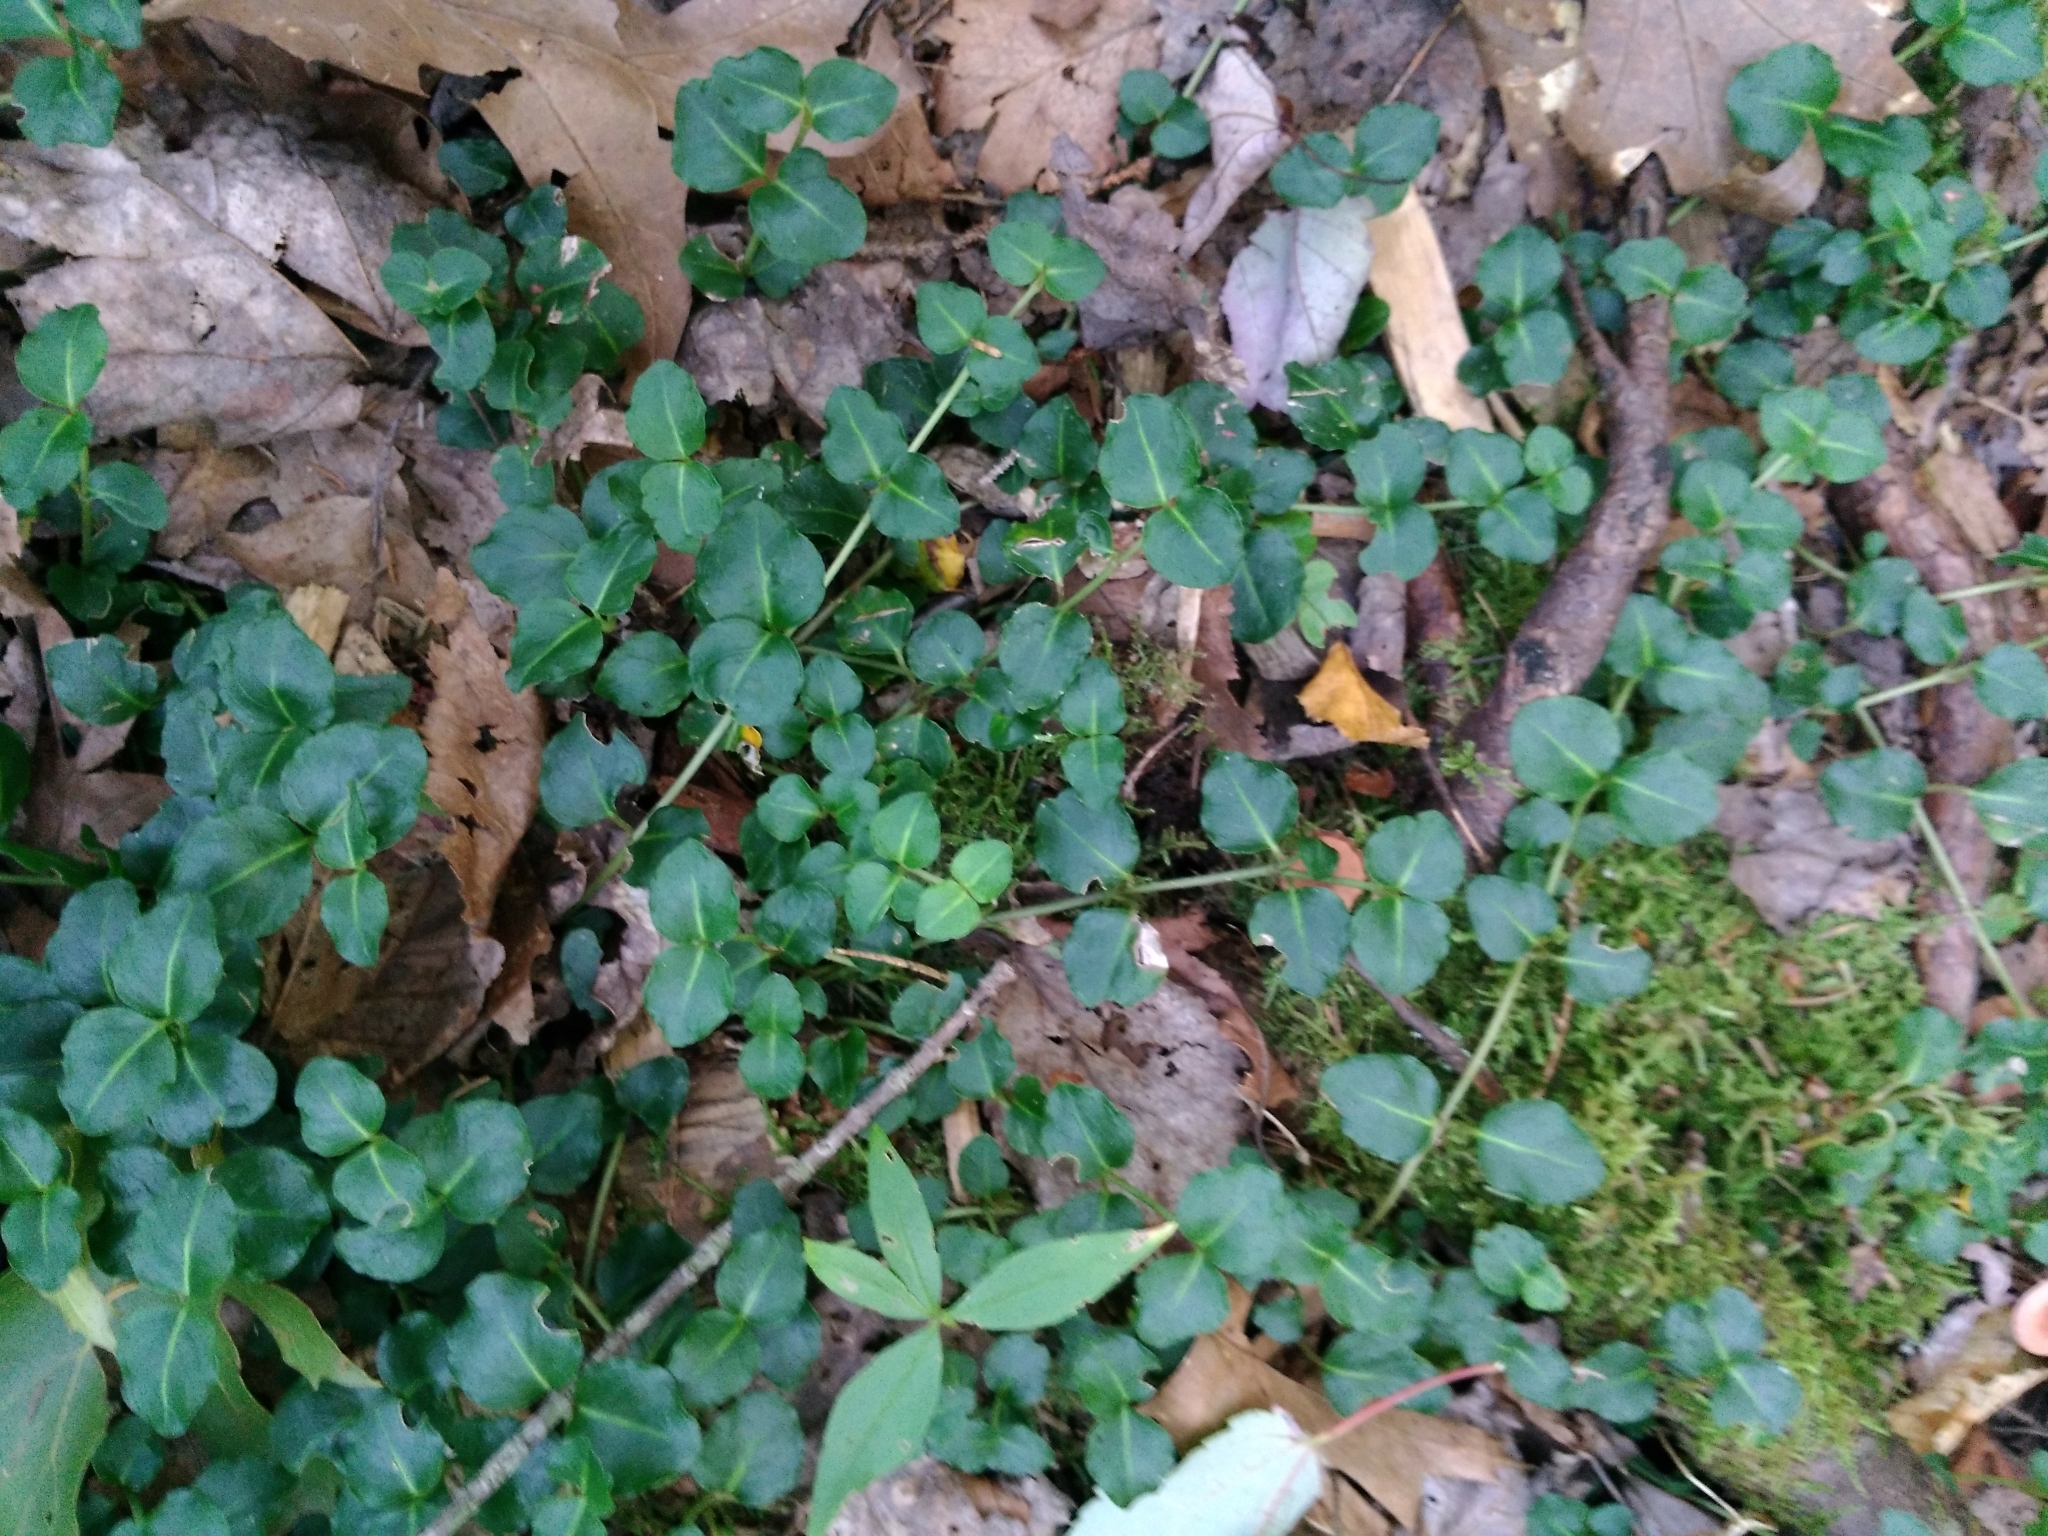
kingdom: Plantae
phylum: Tracheophyta
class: Magnoliopsida
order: Gentianales
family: Rubiaceae
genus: Mitchella
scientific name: Mitchella repens
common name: Partridge-berry
